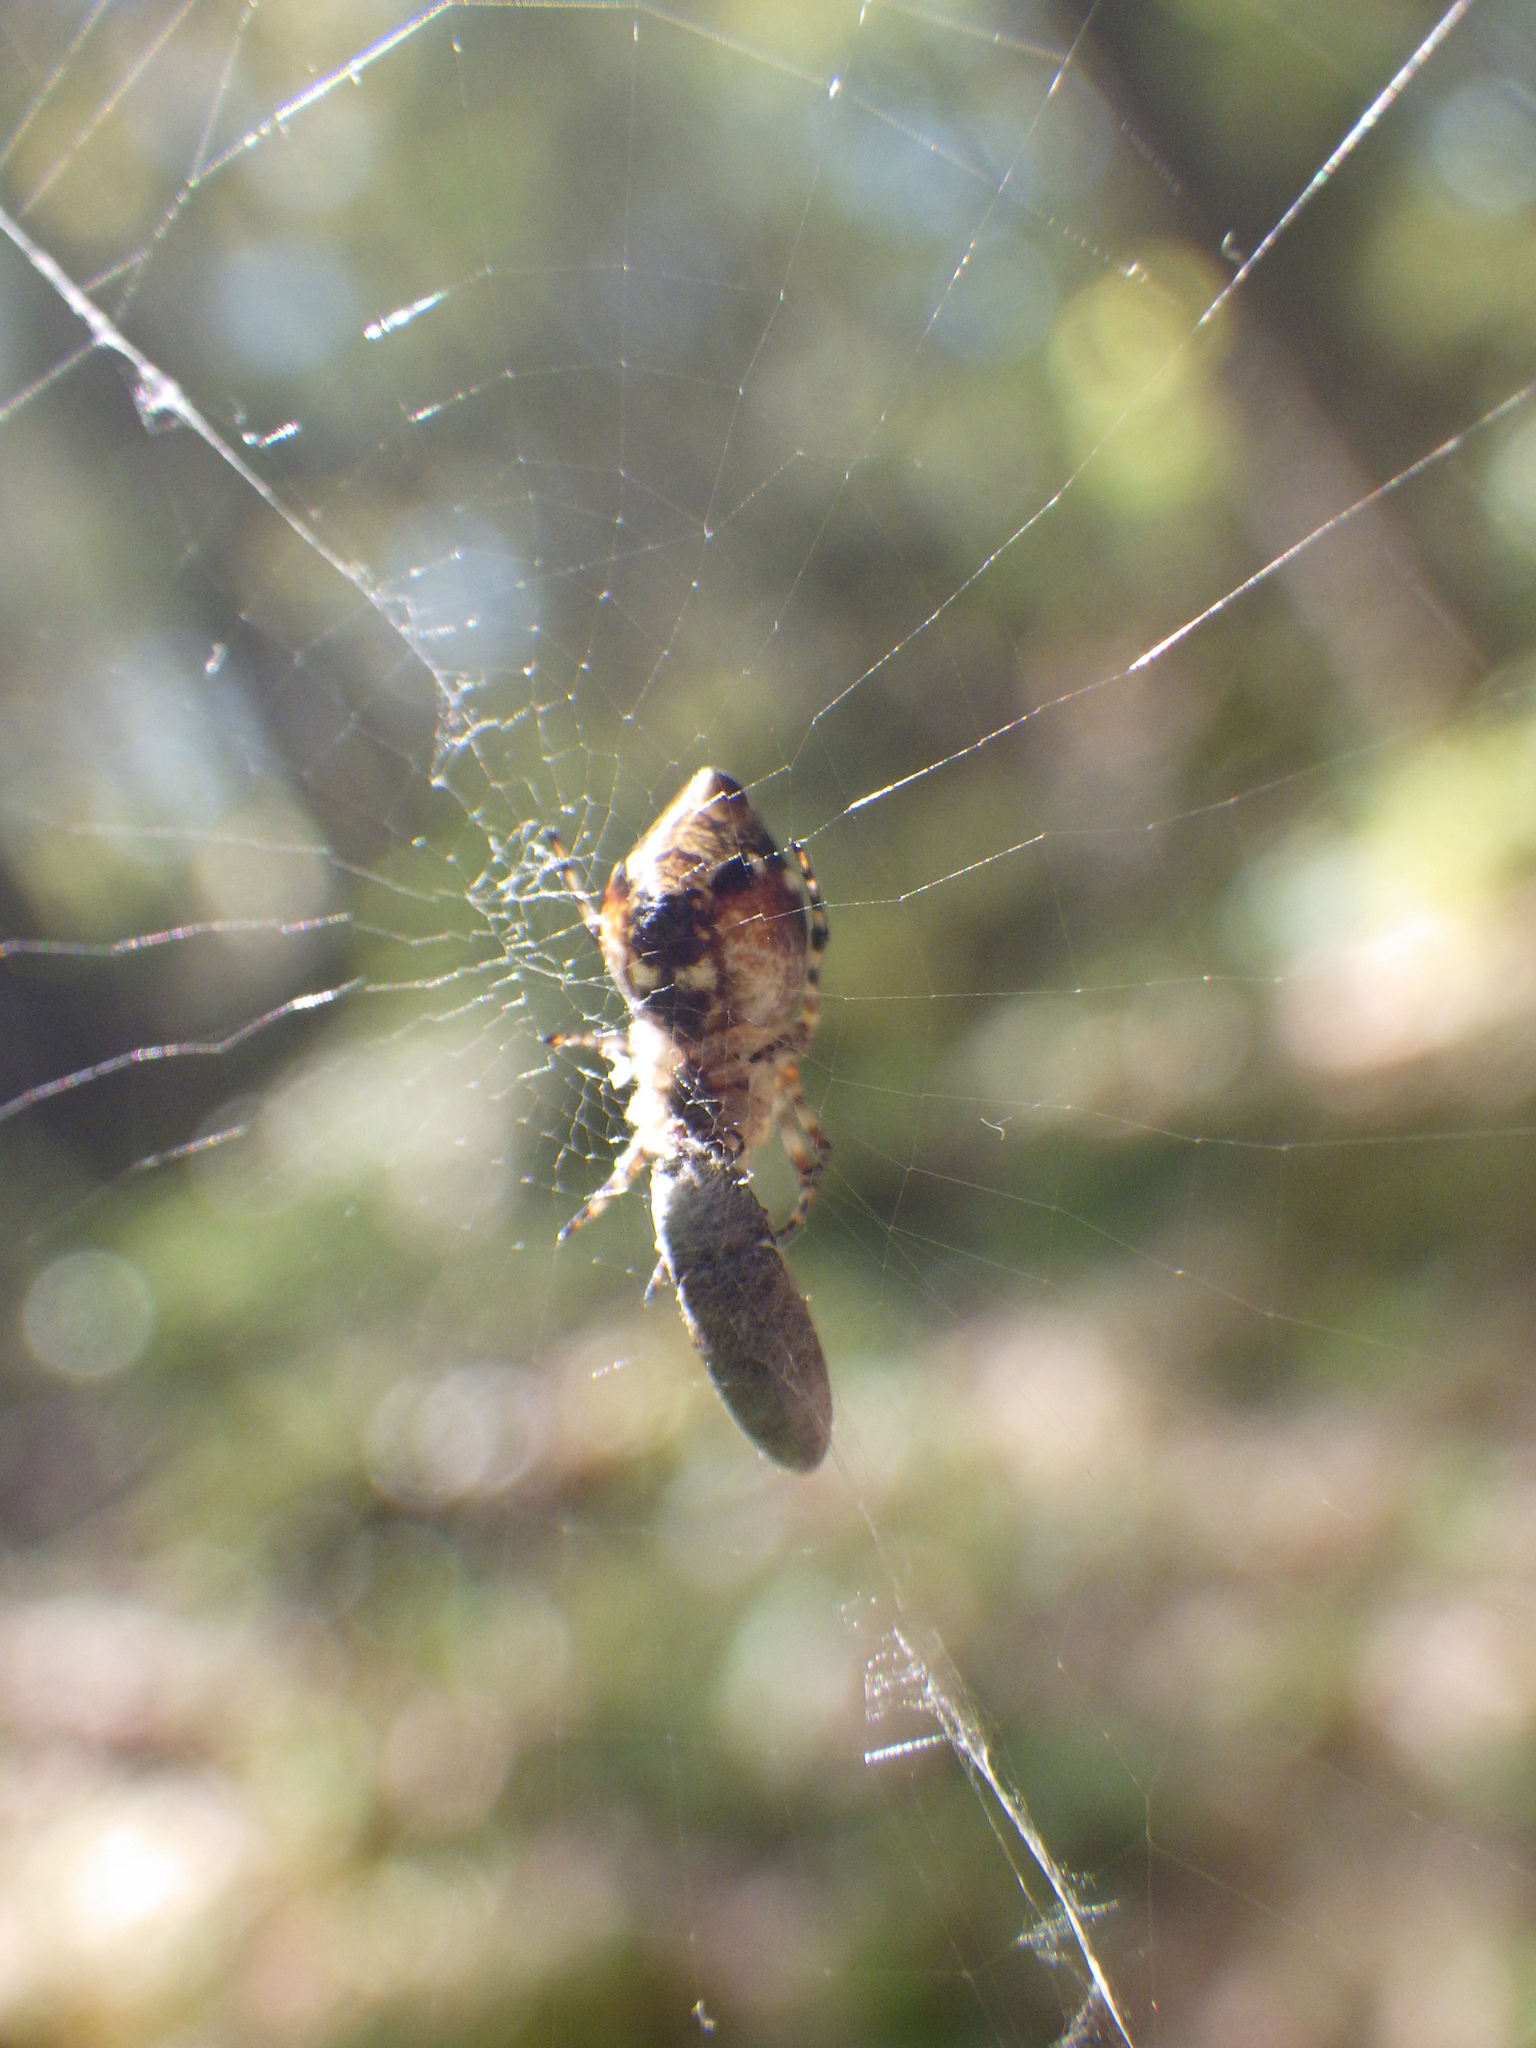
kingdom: Animalia
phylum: Arthropoda
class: Arachnida
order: Araneae
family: Araneidae
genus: Cyclosa
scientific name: Cyclosa conica
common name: Conical trashline orbweaver
